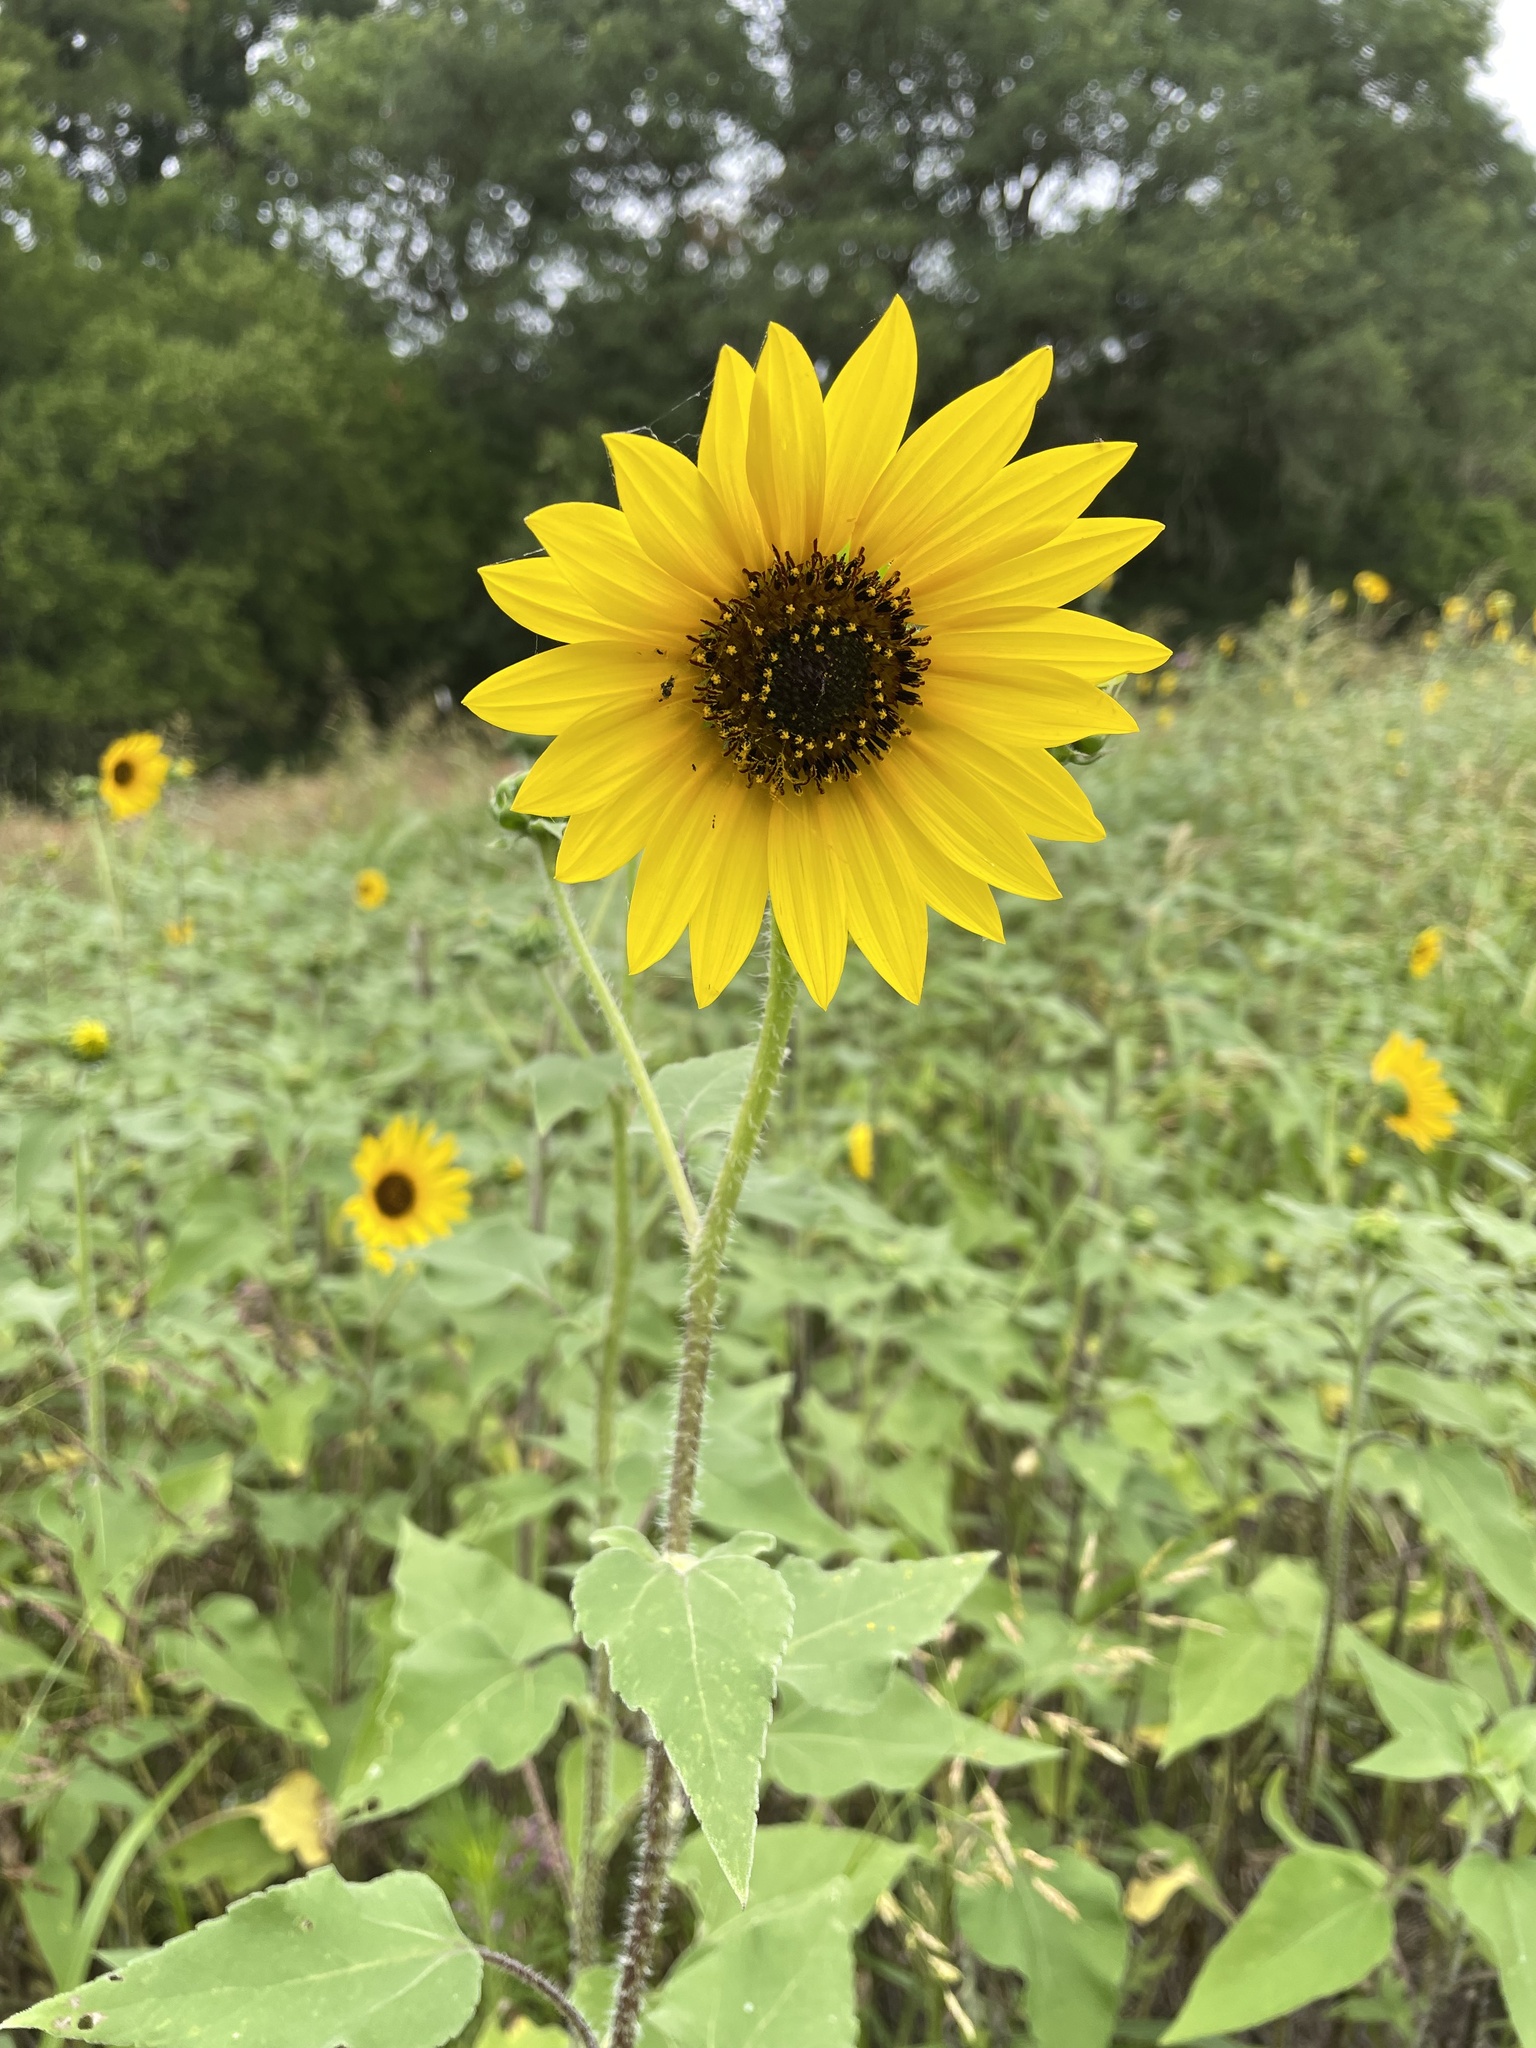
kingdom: Plantae
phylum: Tracheophyta
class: Magnoliopsida
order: Asterales
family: Asteraceae
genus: Helianthus
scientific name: Helianthus annuus
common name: Sunflower
